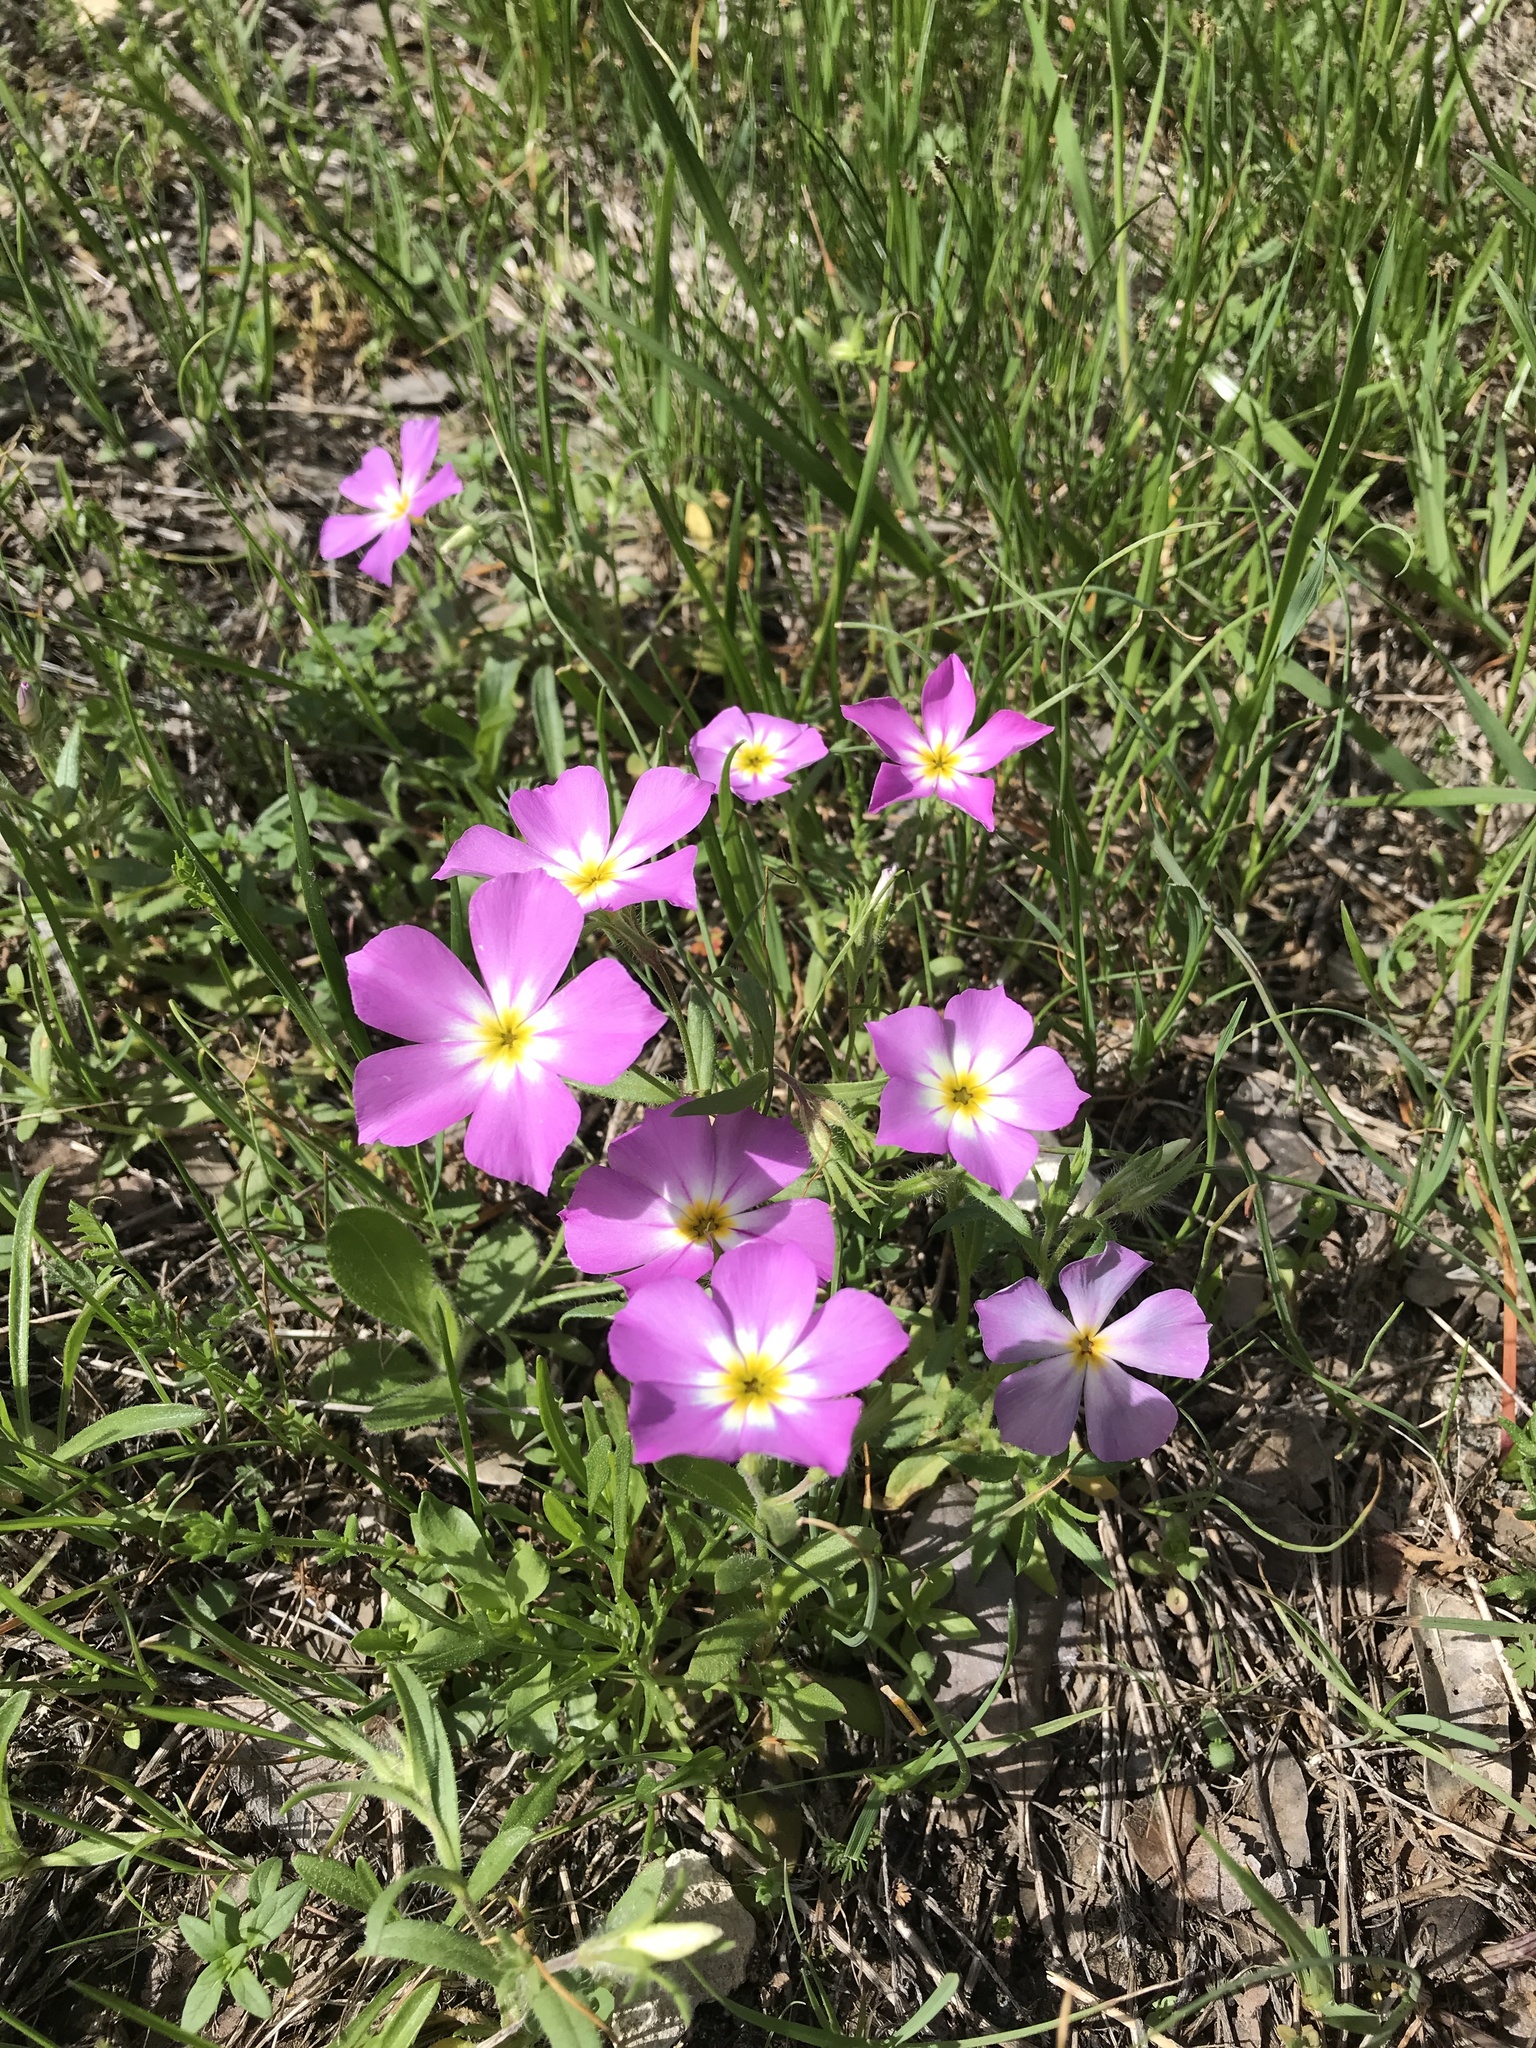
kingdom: Plantae
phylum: Tracheophyta
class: Magnoliopsida
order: Ericales
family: Polemoniaceae
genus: Phlox
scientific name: Phlox roemeriana
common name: Roemer's phlox
